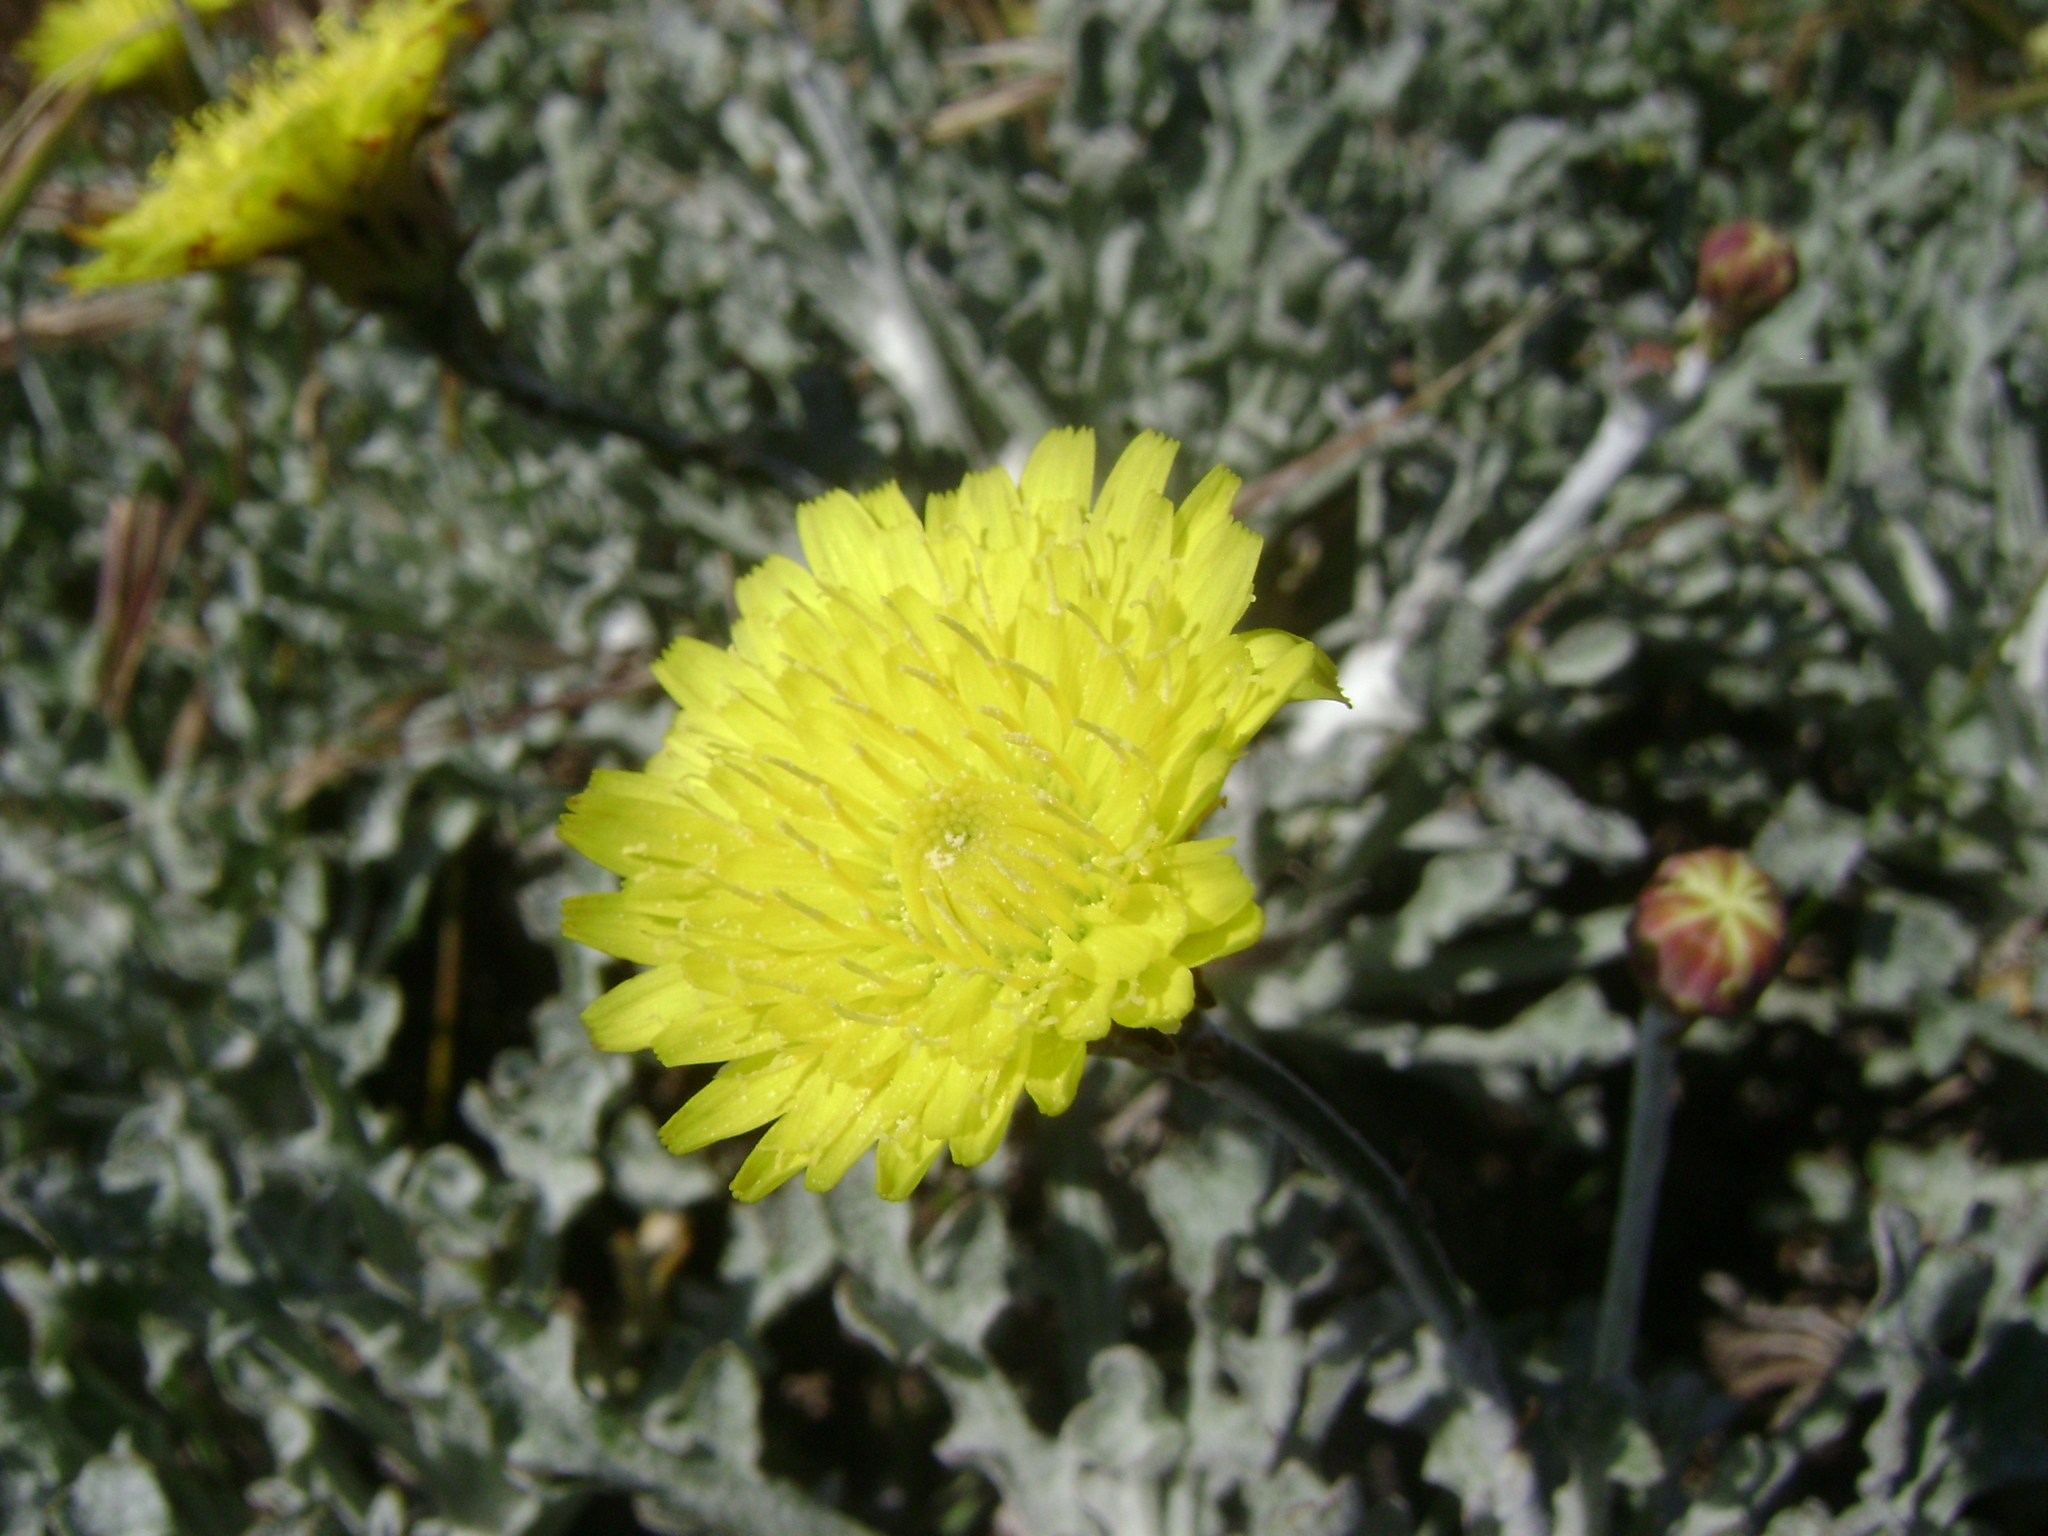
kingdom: Plantae
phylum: Tracheophyta
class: Magnoliopsida
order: Asterales
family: Asteraceae
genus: Malacothrix
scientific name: Malacothrix incana
